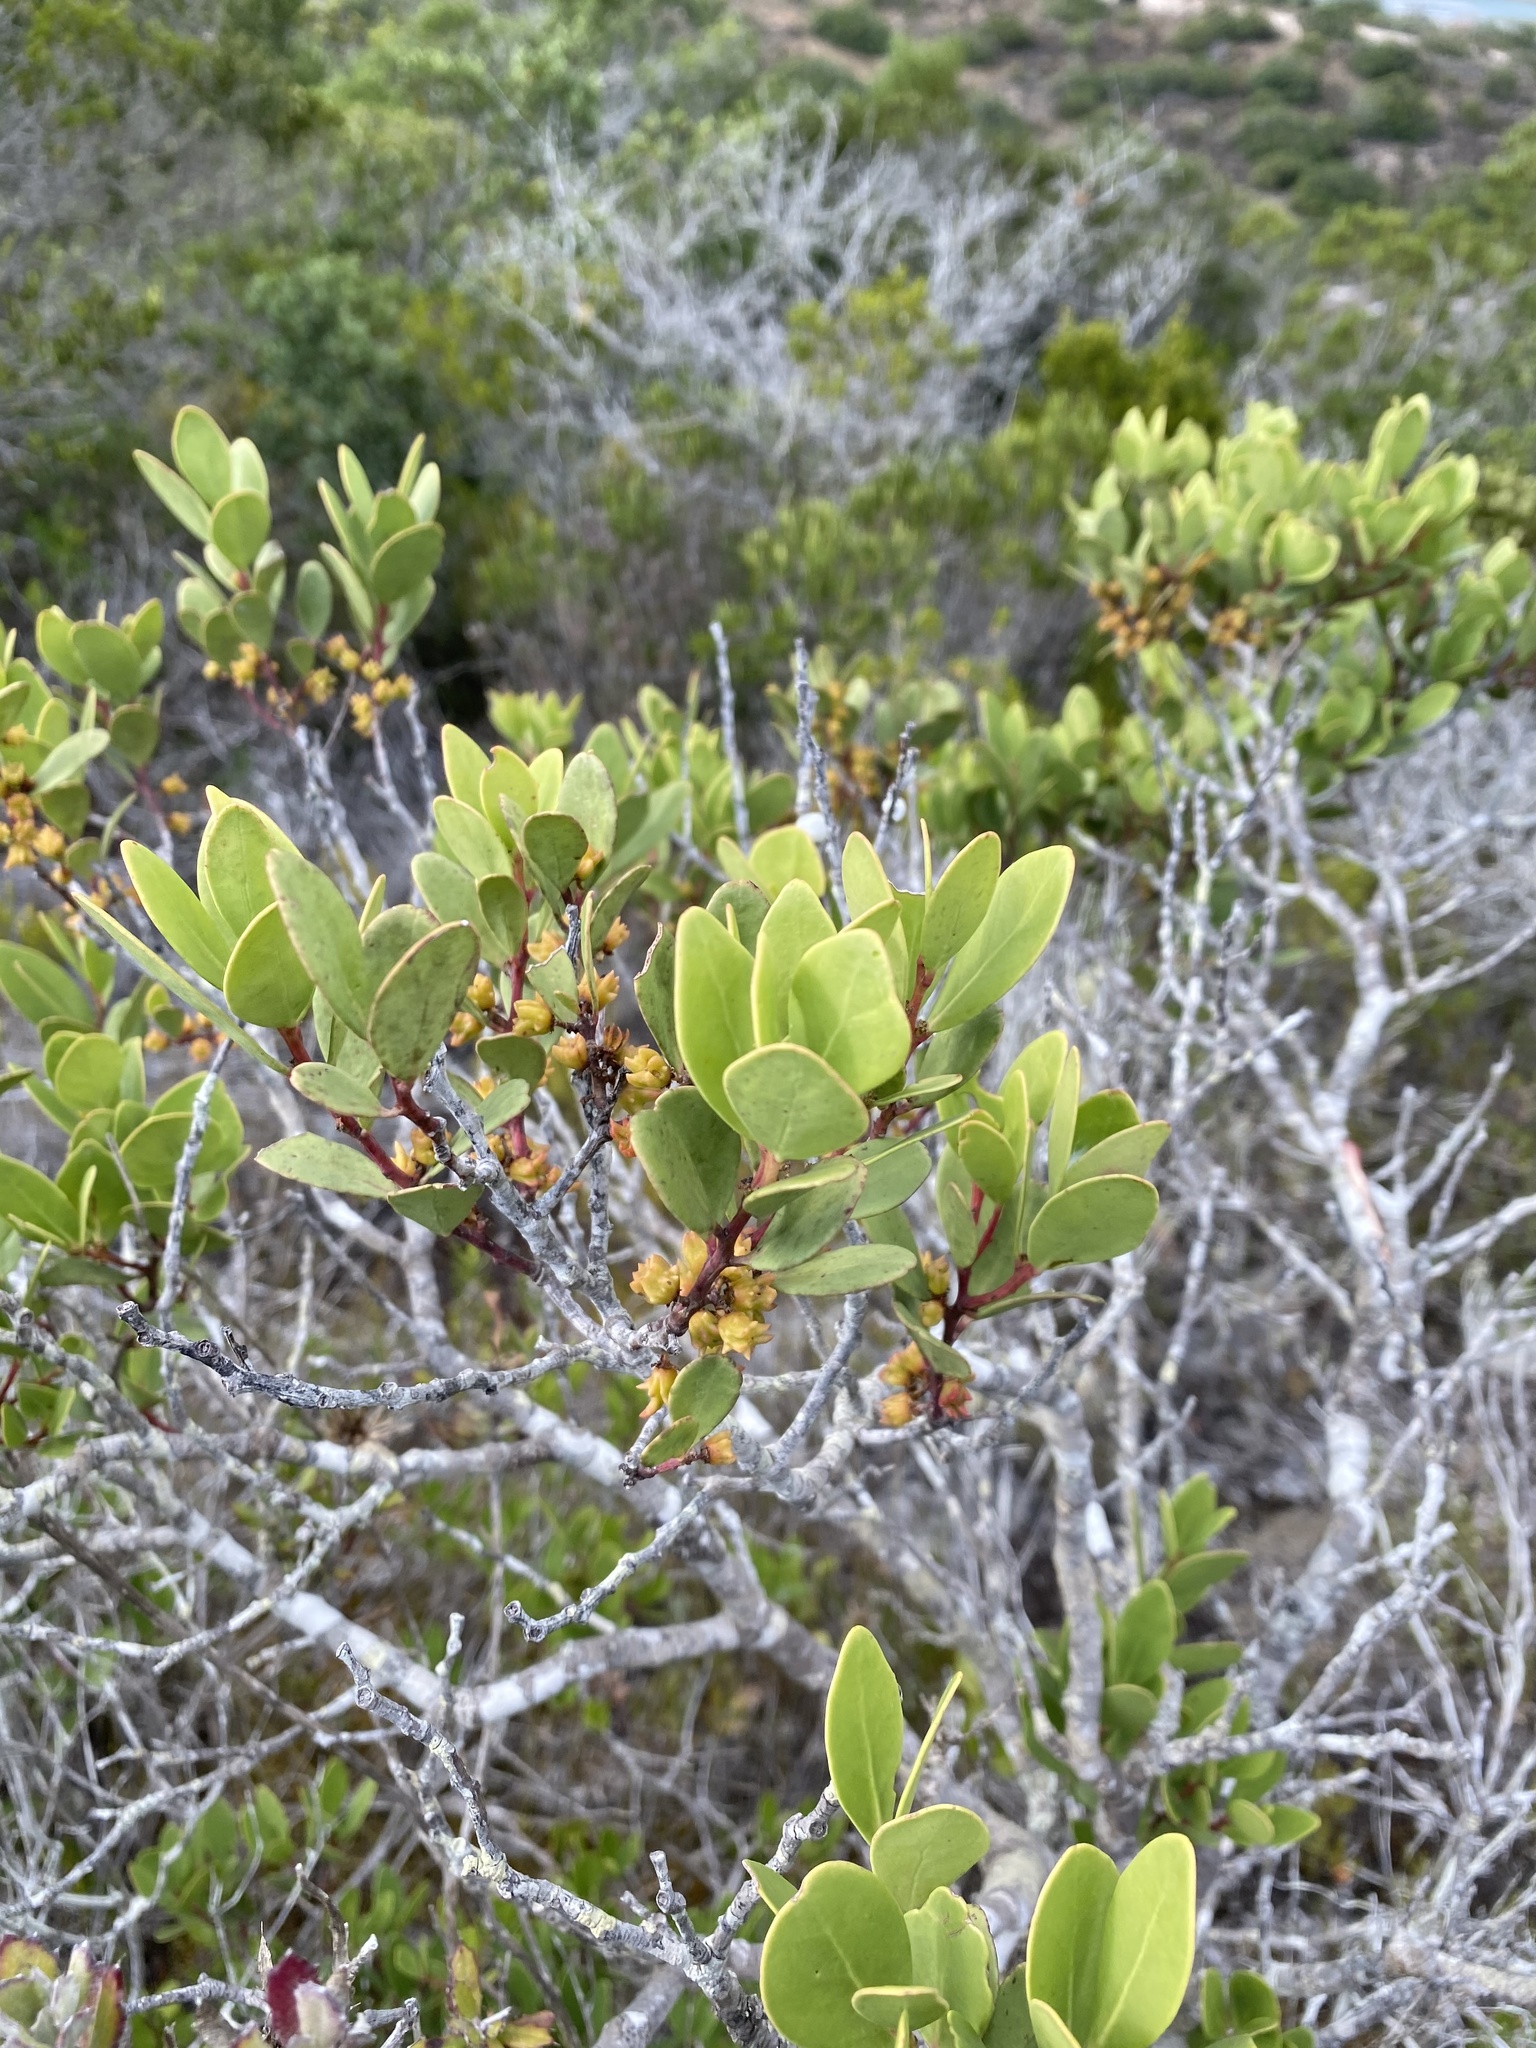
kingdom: Plantae
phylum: Tracheophyta
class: Magnoliopsida
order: Celastrales
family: Celastraceae
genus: Pterocelastrus
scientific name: Pterocelastrus tricuspidatus
